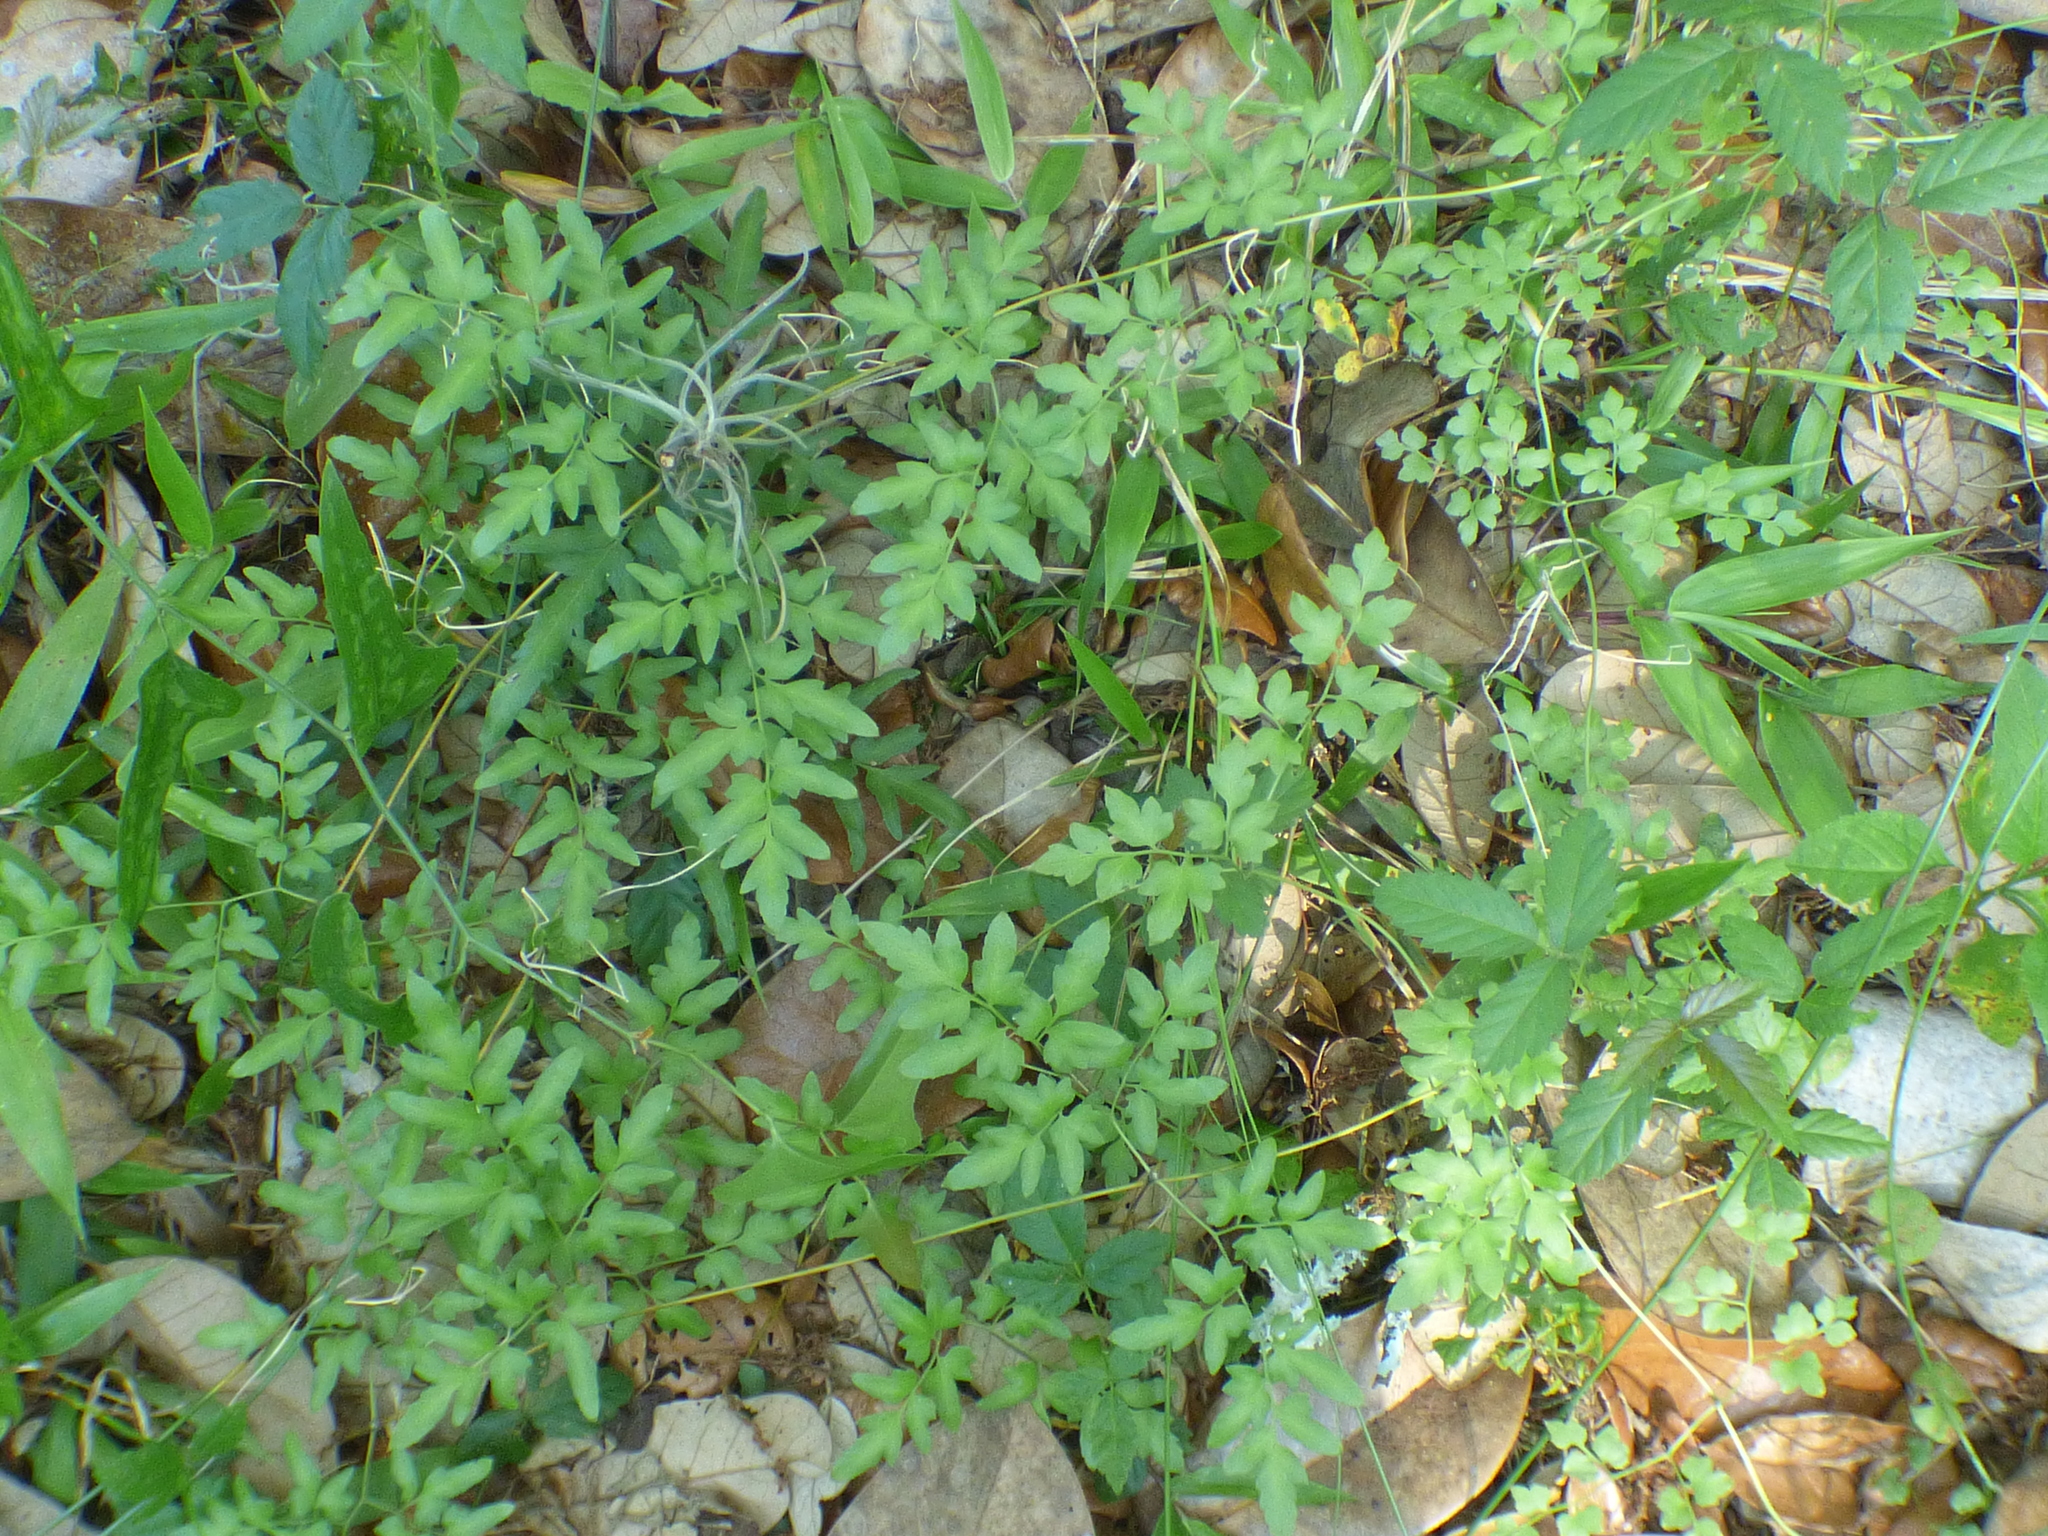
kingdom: Plantae
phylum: Tracheophyta
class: Polypodiopsida
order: Schizaeales
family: Lygodiaceae
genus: Lygodium
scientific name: Lygodium japonicum
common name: Japanese climbing fern
